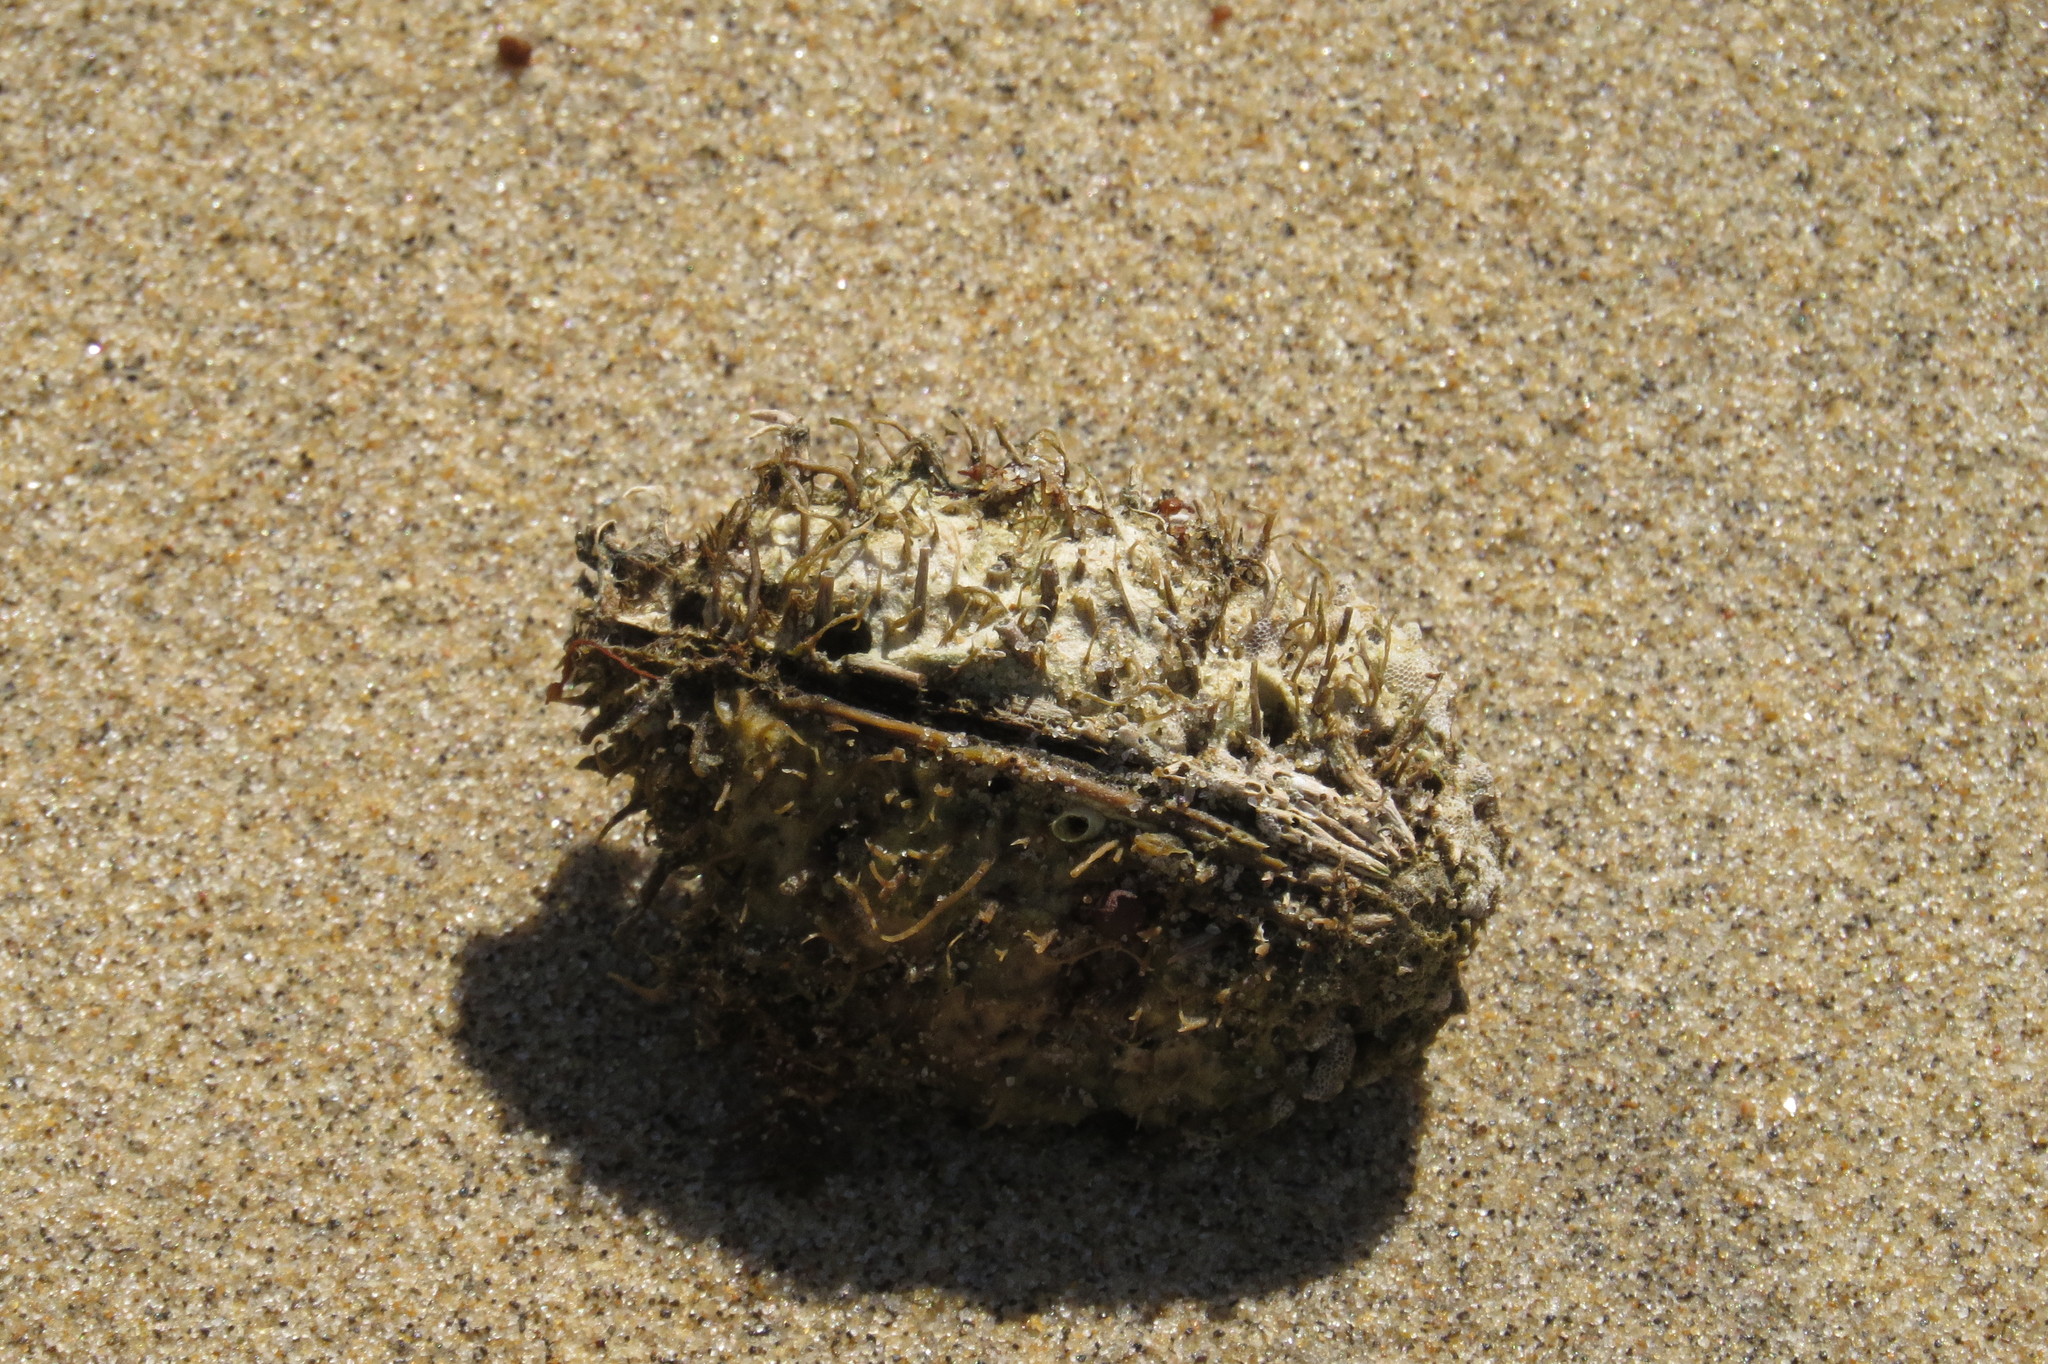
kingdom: Plantae
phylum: Tracheophyta
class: Magnoliopsida
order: Myrtales
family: Combretaceae
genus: Terminalia
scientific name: Terminalia catappa
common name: Tropical almond
